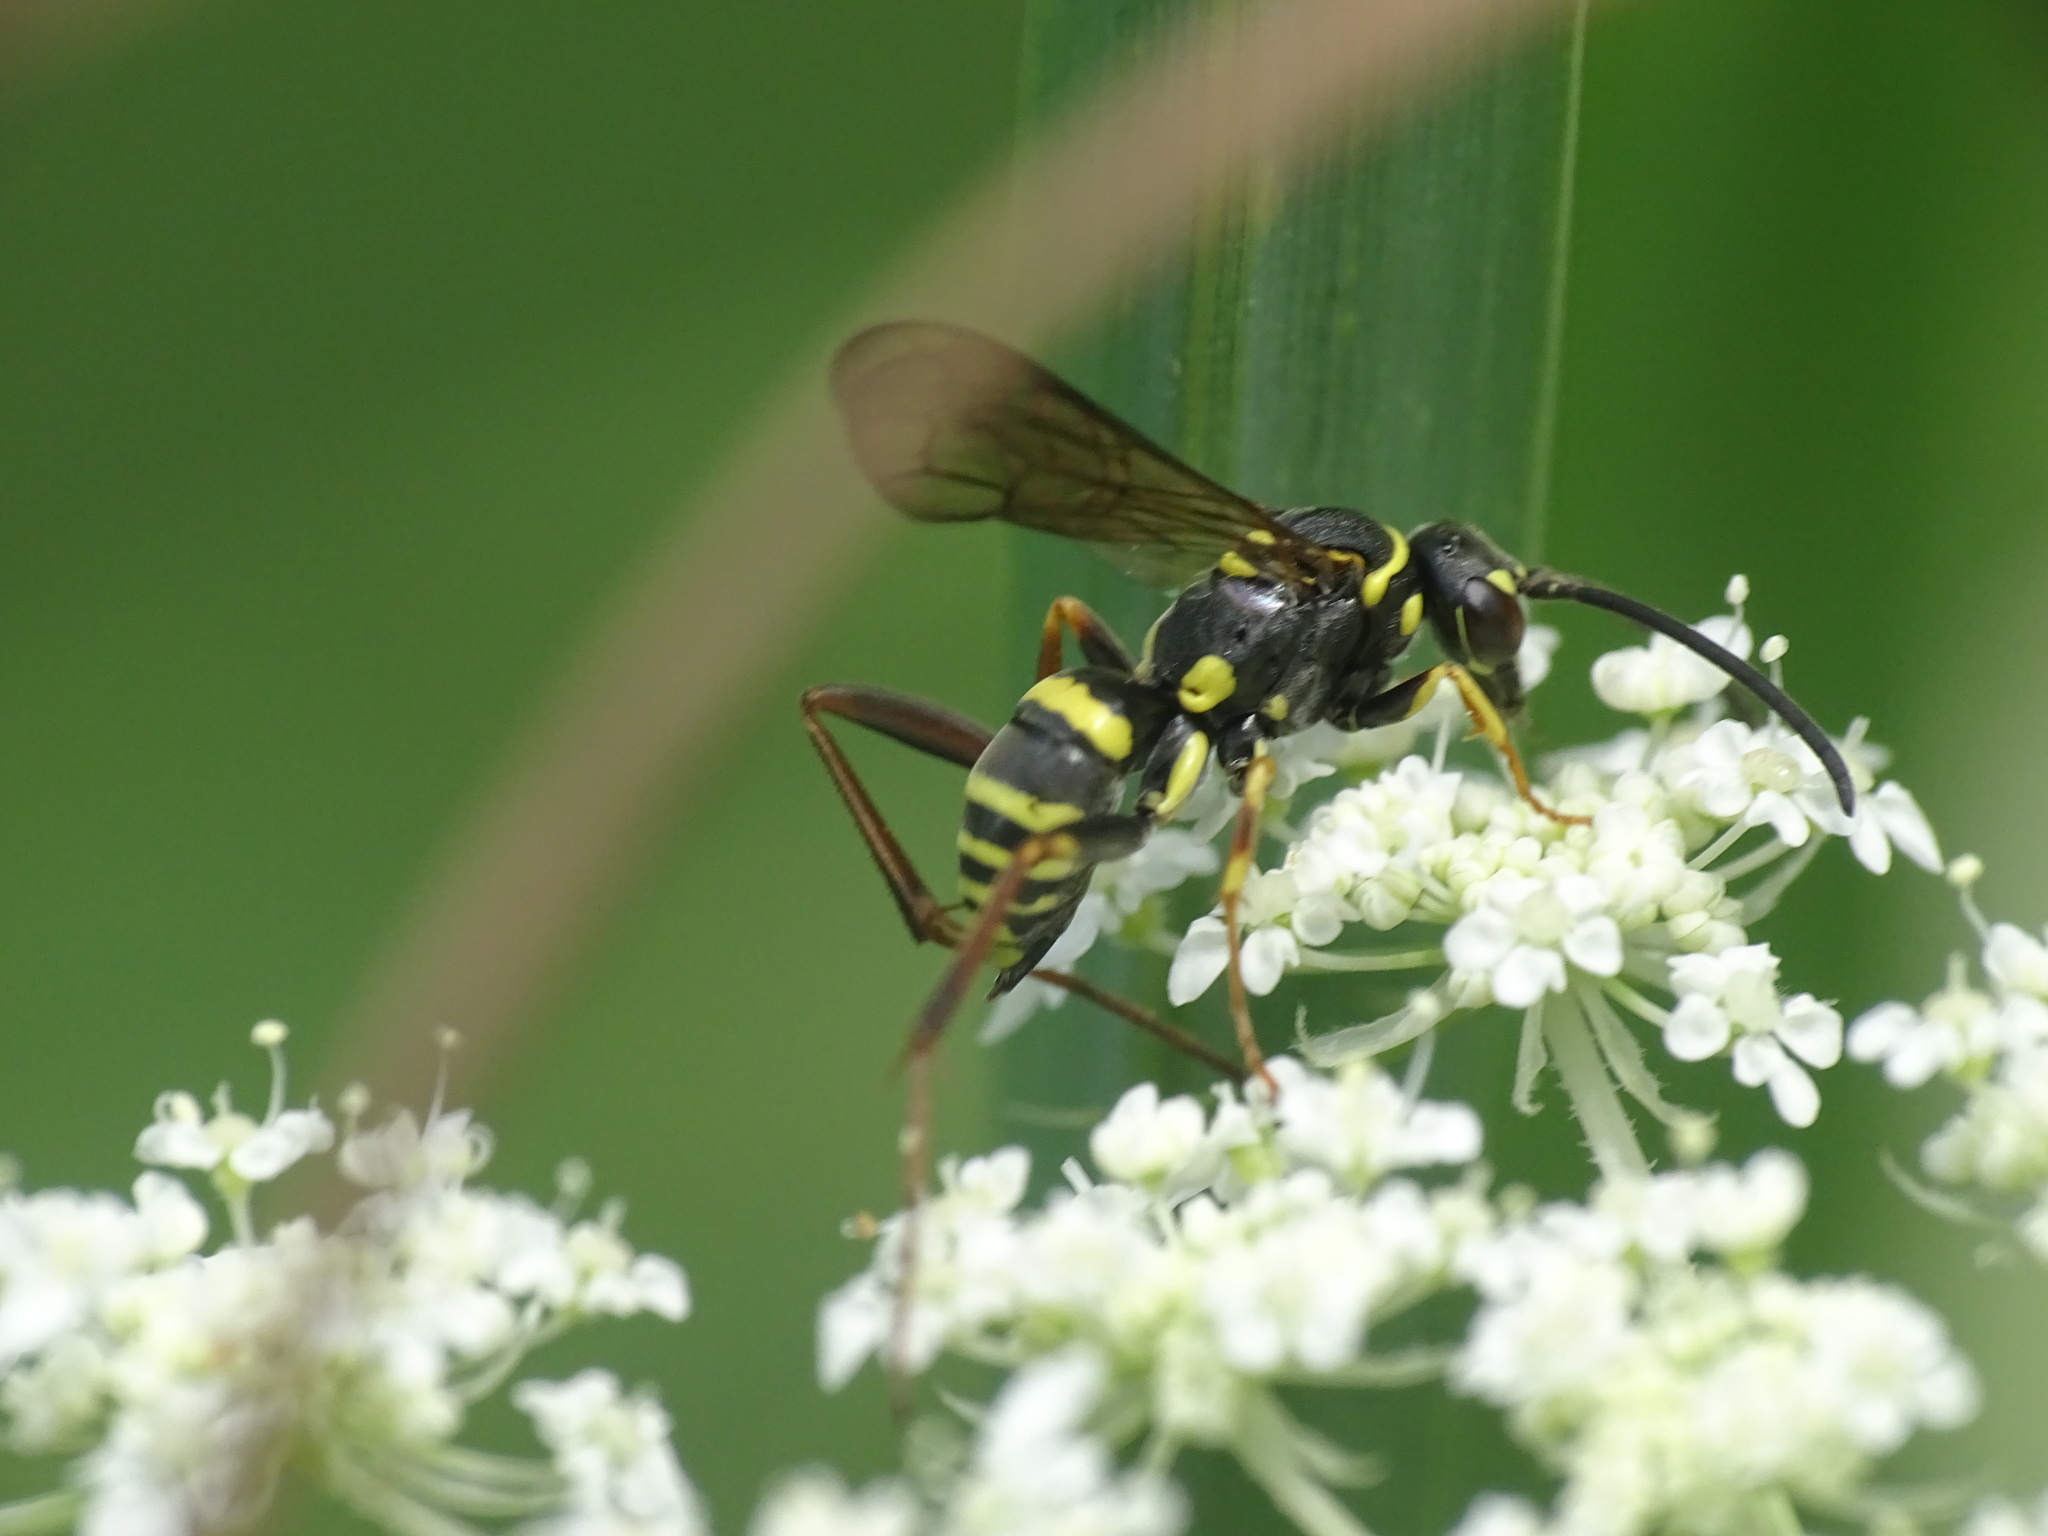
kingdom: Animalia
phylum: Arthropoda
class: Insecta
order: Hymenoptera
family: Pompilidae
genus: Ceropales
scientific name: Ceropales maculata
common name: Spider wasp
